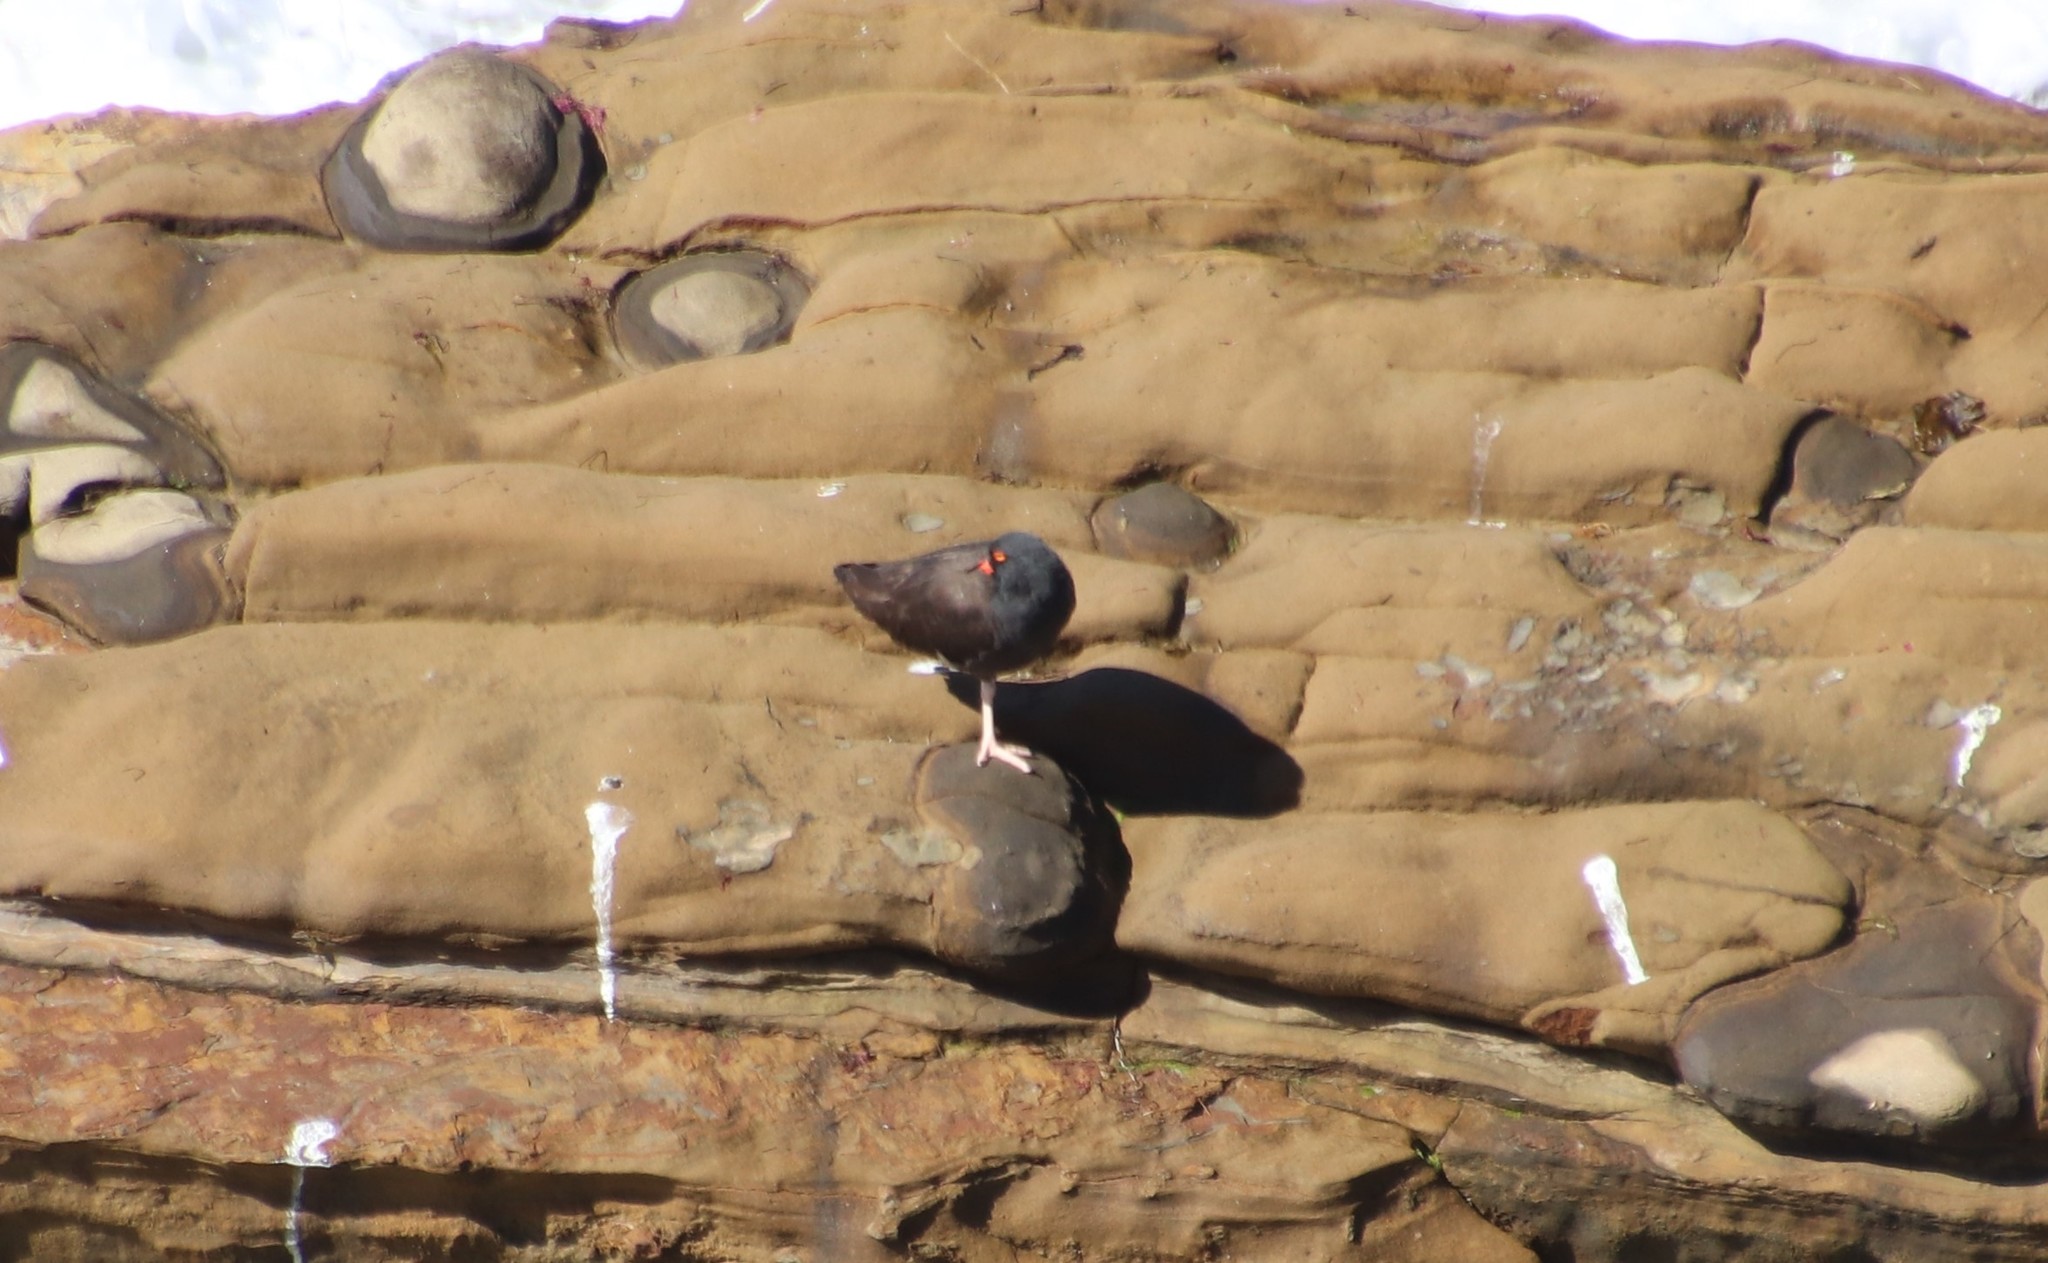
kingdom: Animalia
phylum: Chordata
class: Aves
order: Charadriiformes
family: Haematopodidae
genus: Haematopus
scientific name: Haematopus bachmani
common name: Black oystercatcher
